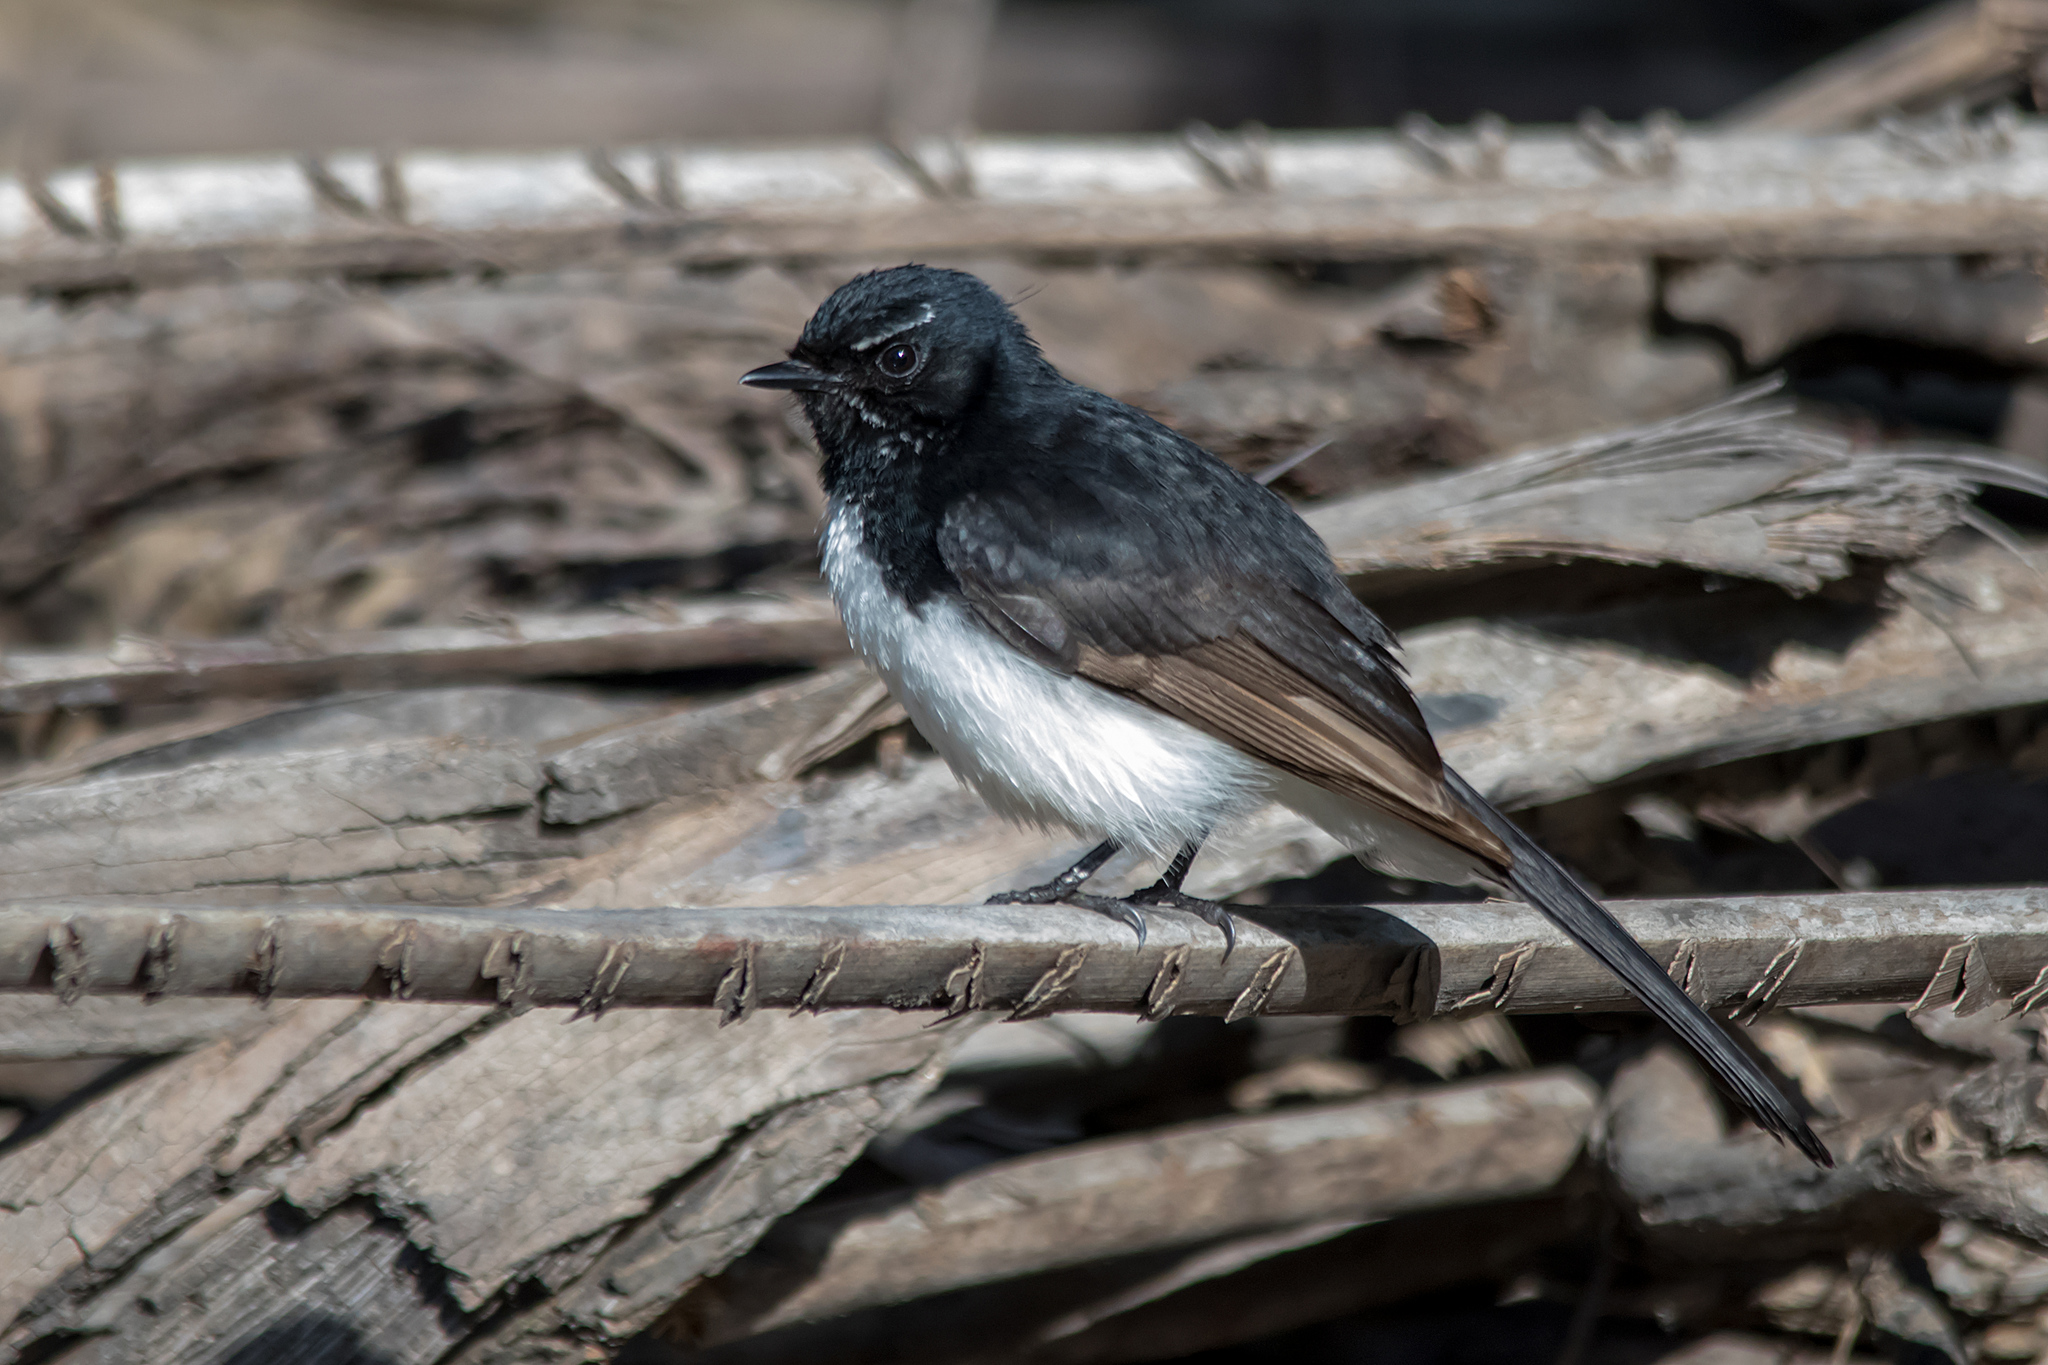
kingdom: Animalia
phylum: Chordata
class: Aves
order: Passeriformes
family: Rhipiduridae
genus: Rhipidura
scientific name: Rhipidura leucophrys
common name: Willie wagtail
